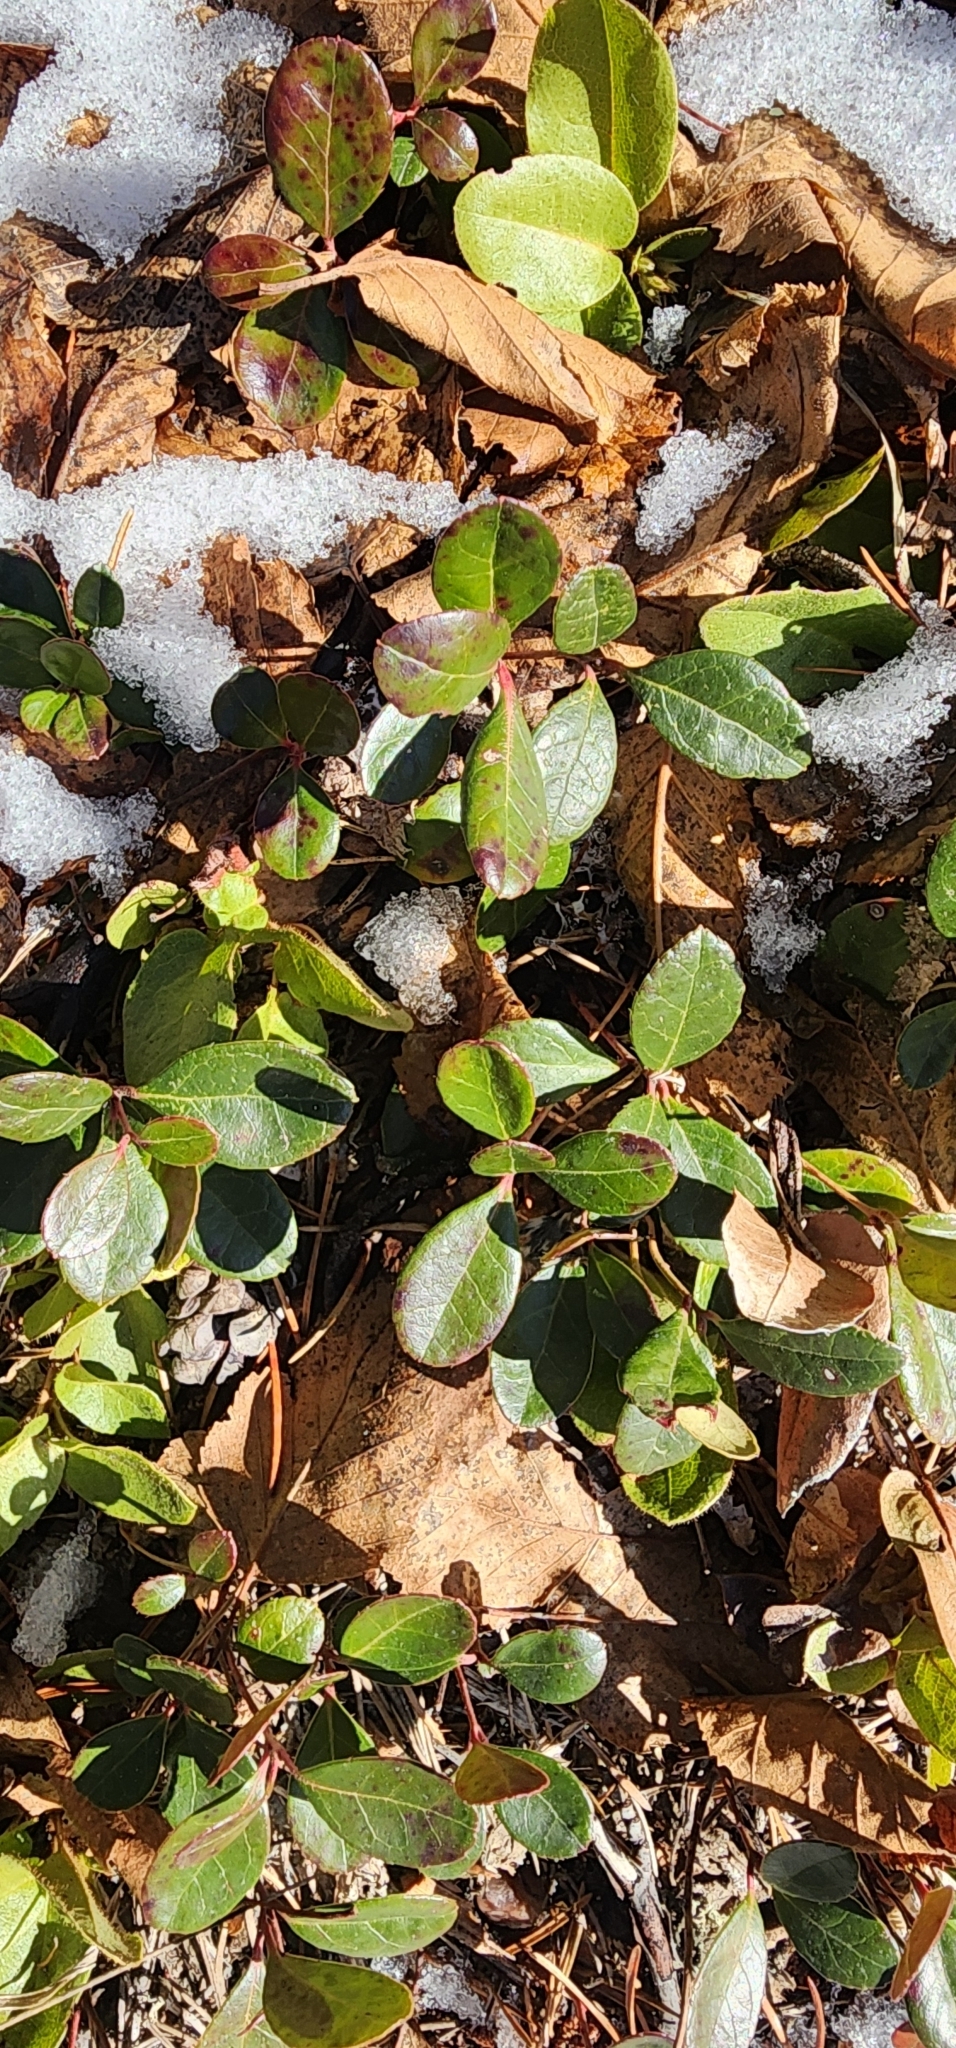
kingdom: Plantae
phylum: Tracheophyta
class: Magnoliopsida
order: Ericales
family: Ericaceae
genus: Gaultheria
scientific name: Gaultheria procumbens
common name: Checkerberry
